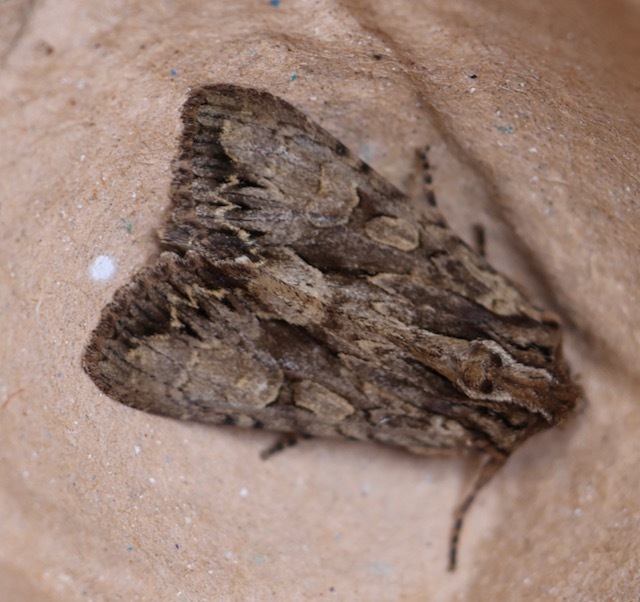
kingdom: Animalia
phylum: Arthropoda
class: Insecta
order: Lepidoptera
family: Noctuidae
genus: Apamea
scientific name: Apamea monoglypha
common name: Dark arches
